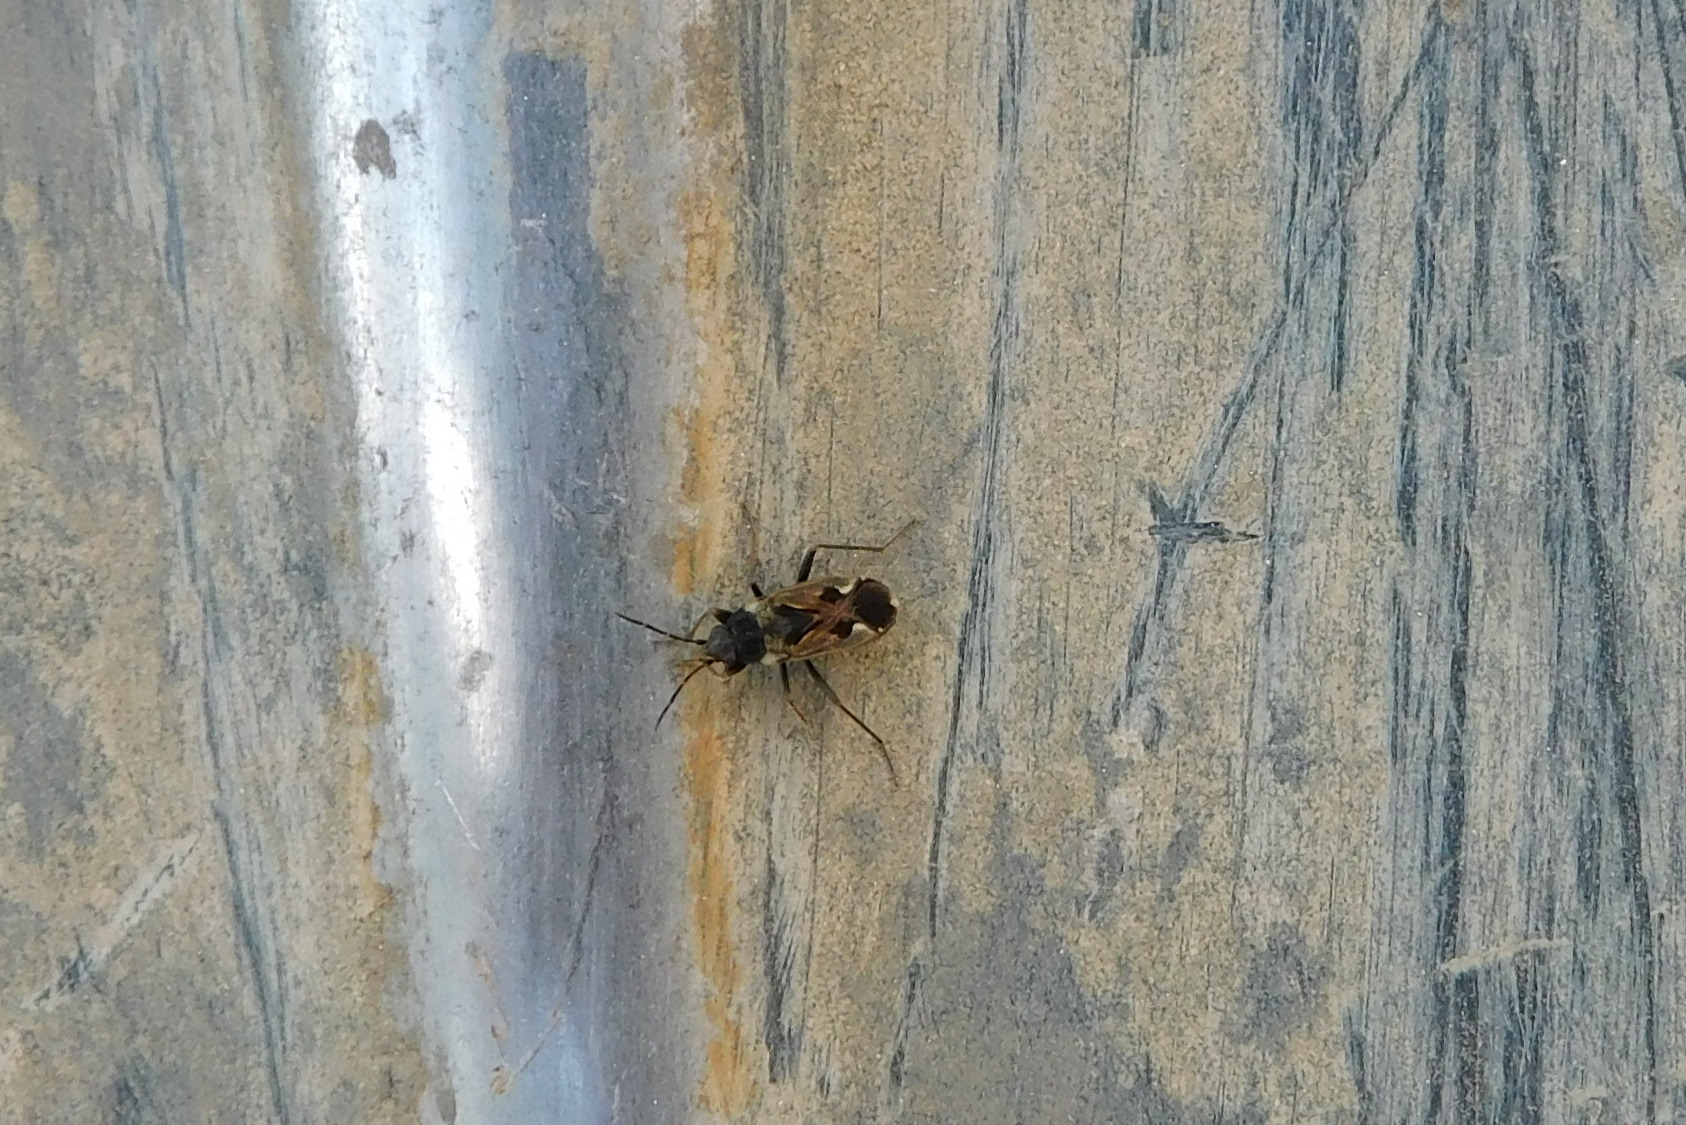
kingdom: Animalia
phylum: Arthropoda
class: Insecta
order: Hemiptera
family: Rhyparochromidae
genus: Rhyparochromus
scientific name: Rhyparochromus vulgaris
